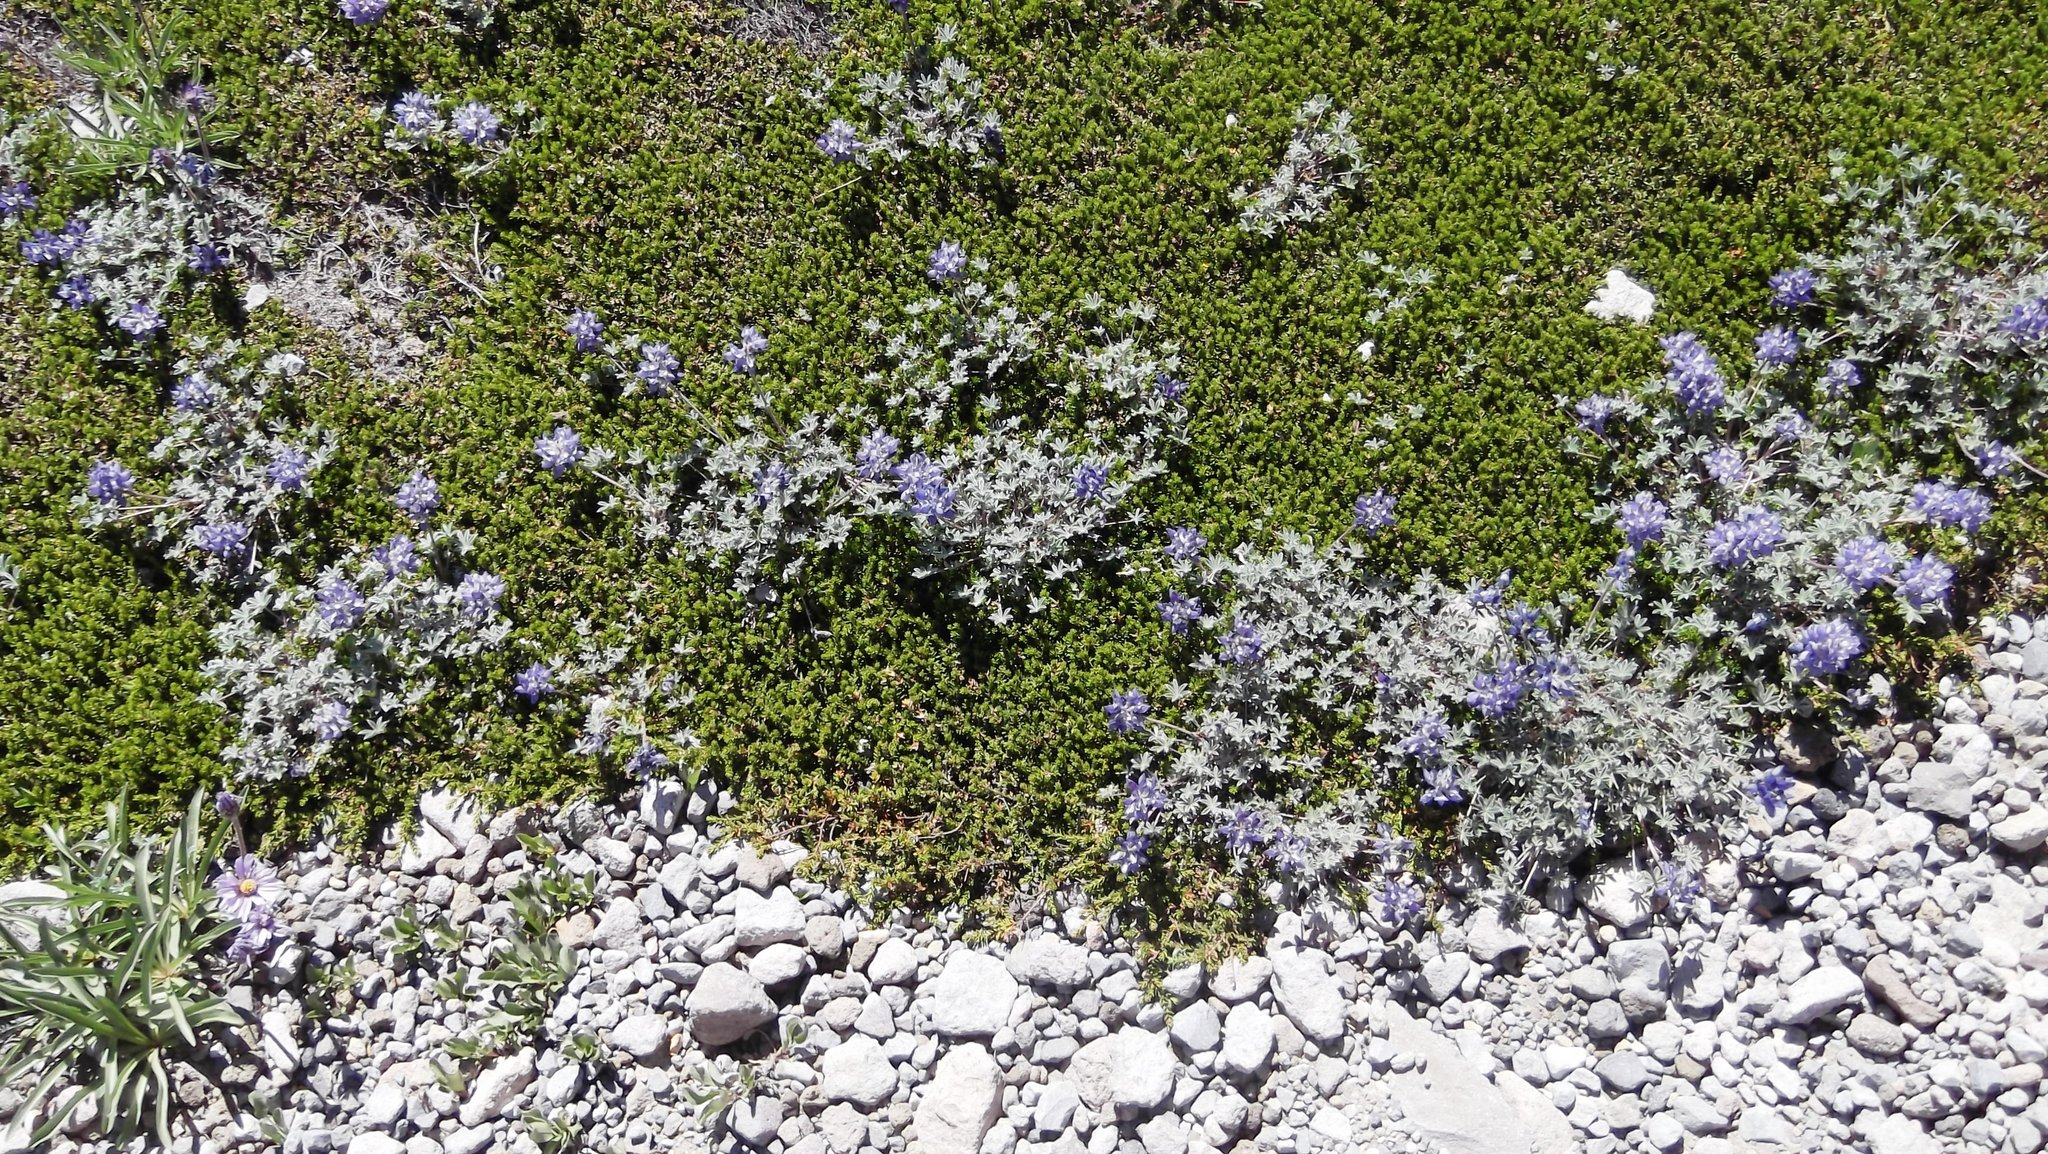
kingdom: Plantae
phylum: Tracheophyta
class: Magnoliopsida
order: Fabales
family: Fabaceae
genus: Lupinus
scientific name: Lupinus sellulus
